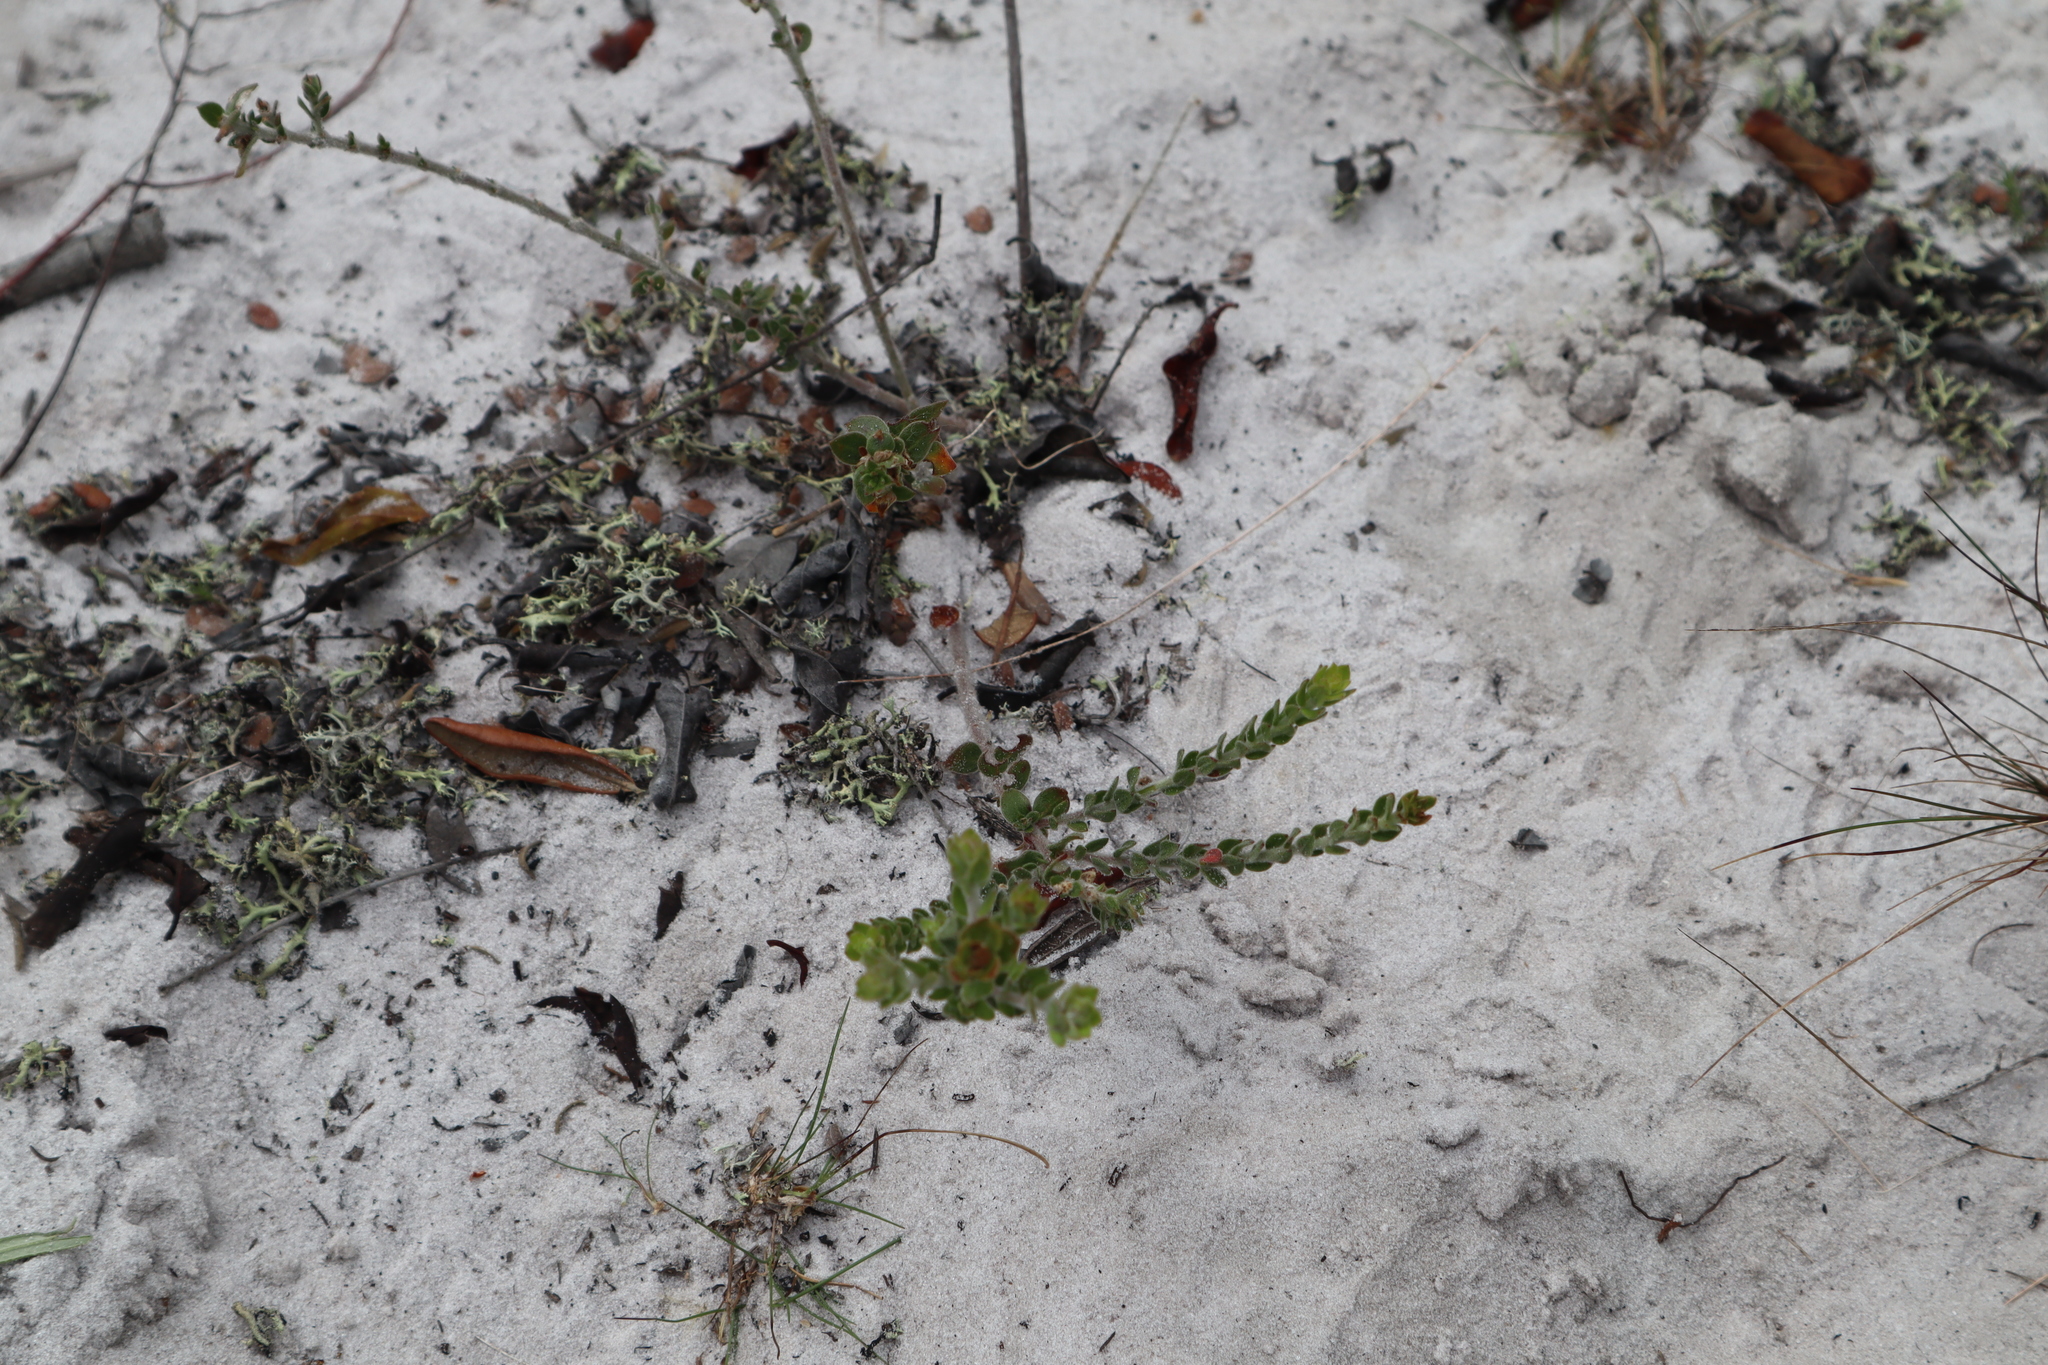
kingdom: Plantae
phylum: Tracheophyta
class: Magnoliopsida
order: Malvales
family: Cistaceae
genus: Lechea
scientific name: Lechea cernua
